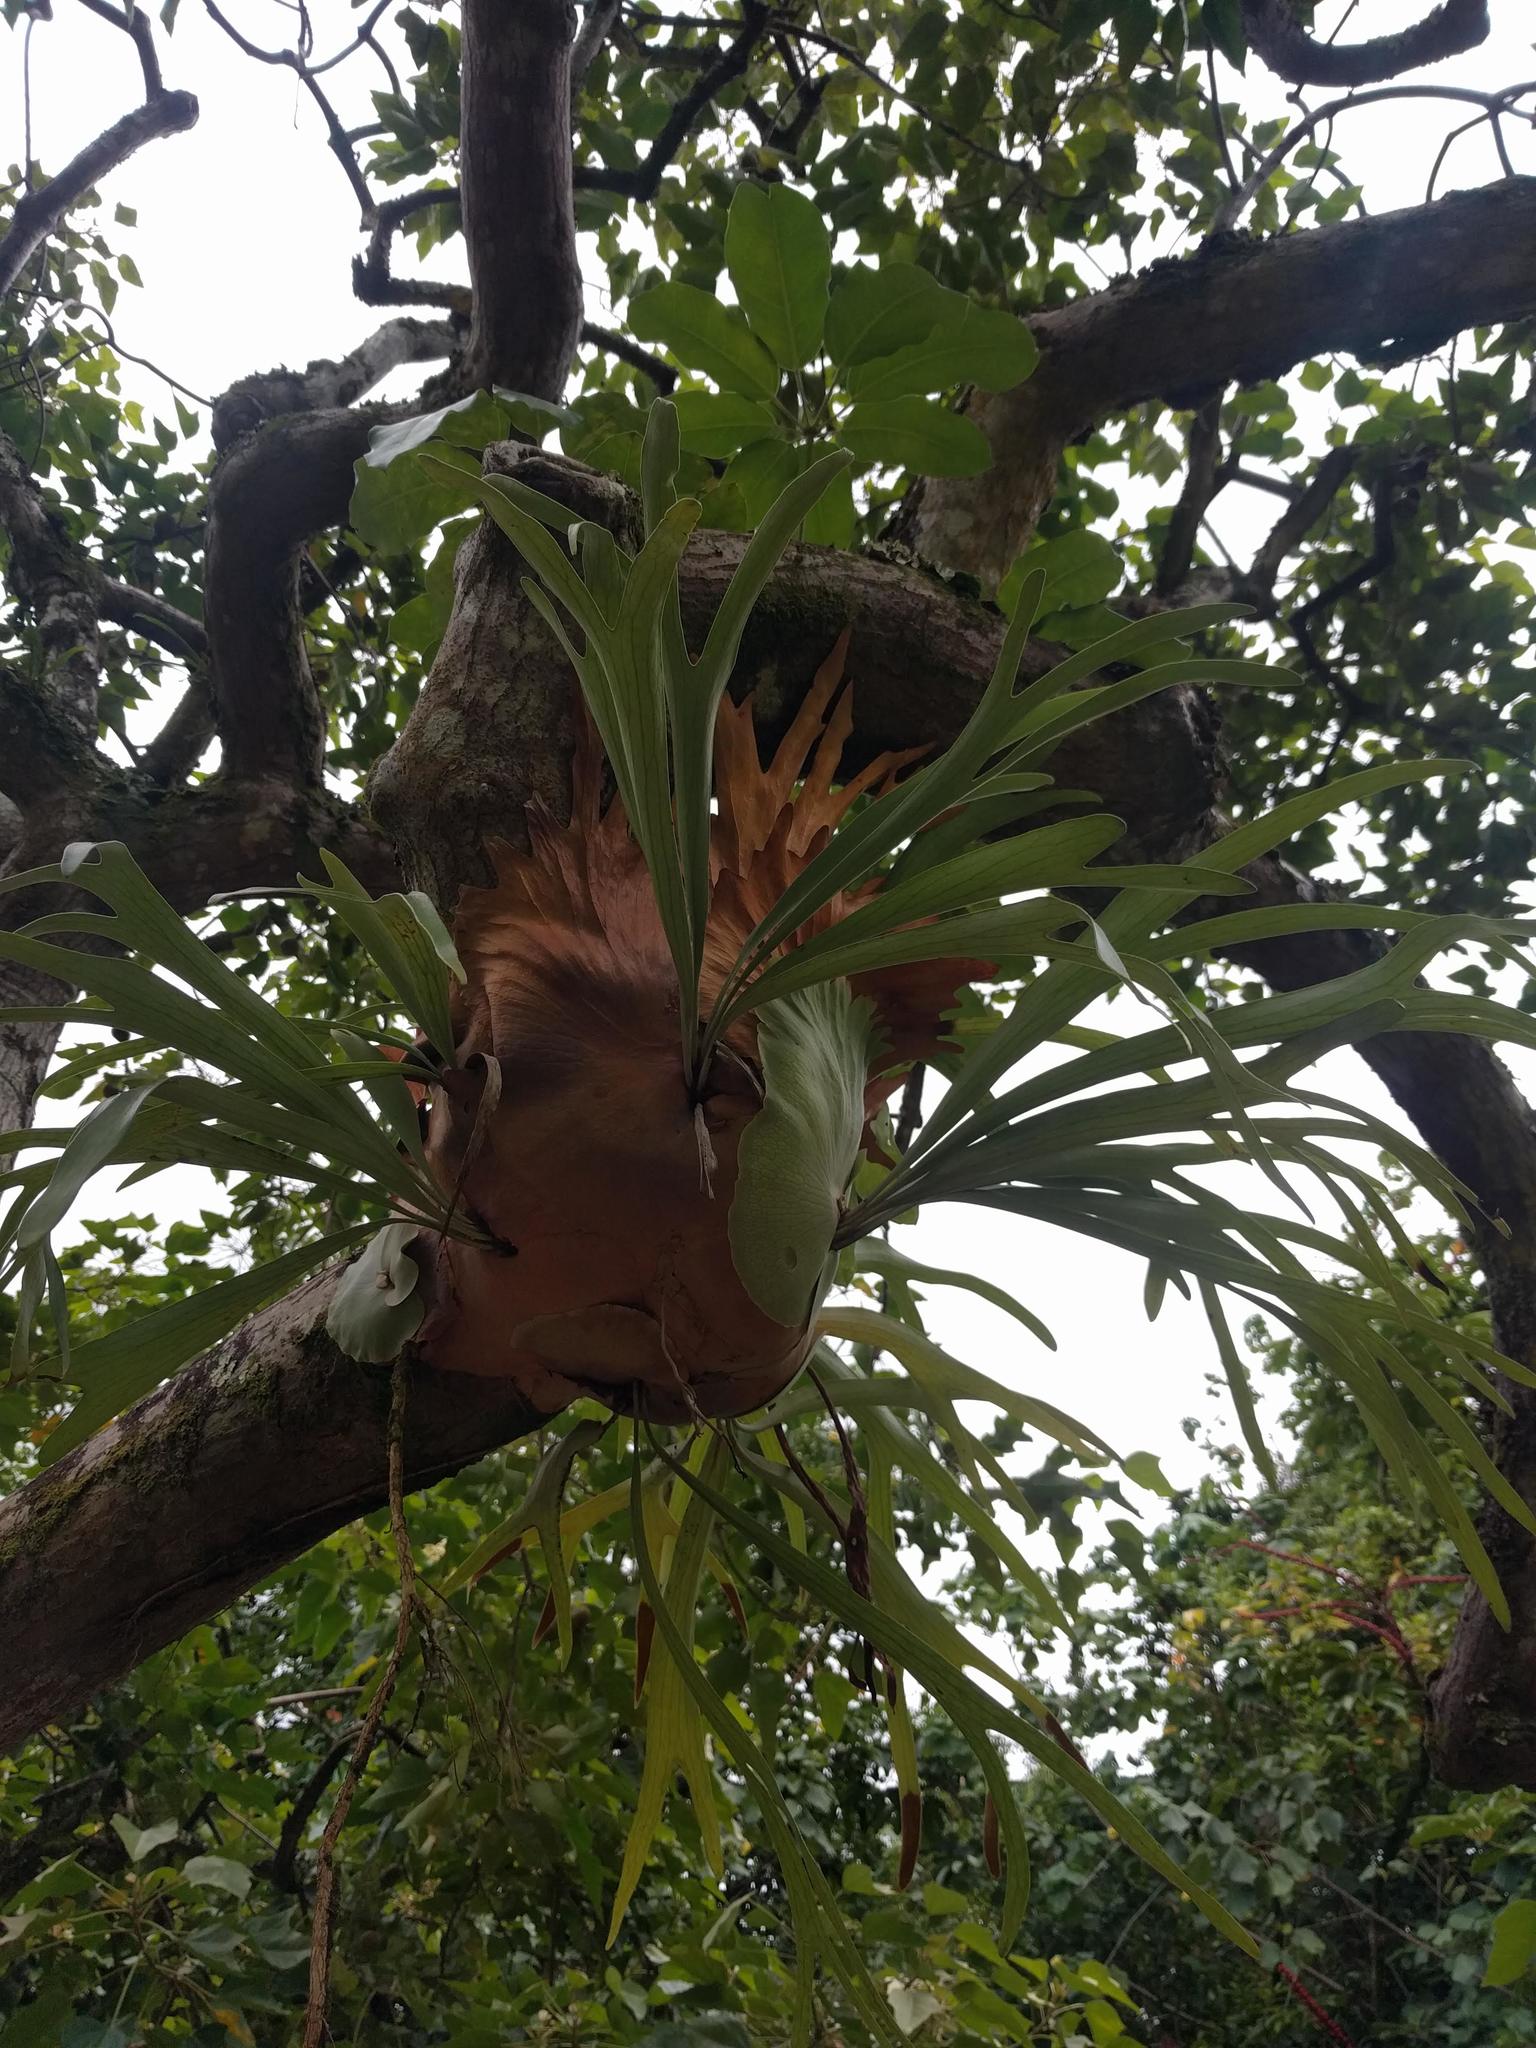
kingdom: Plantae
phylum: Tracheophyta
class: Polypodiopsida
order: Polypodiales
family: Polypodiaceae
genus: Platycerium
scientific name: Platycerium bifurcatum
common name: Elkhorn fern
